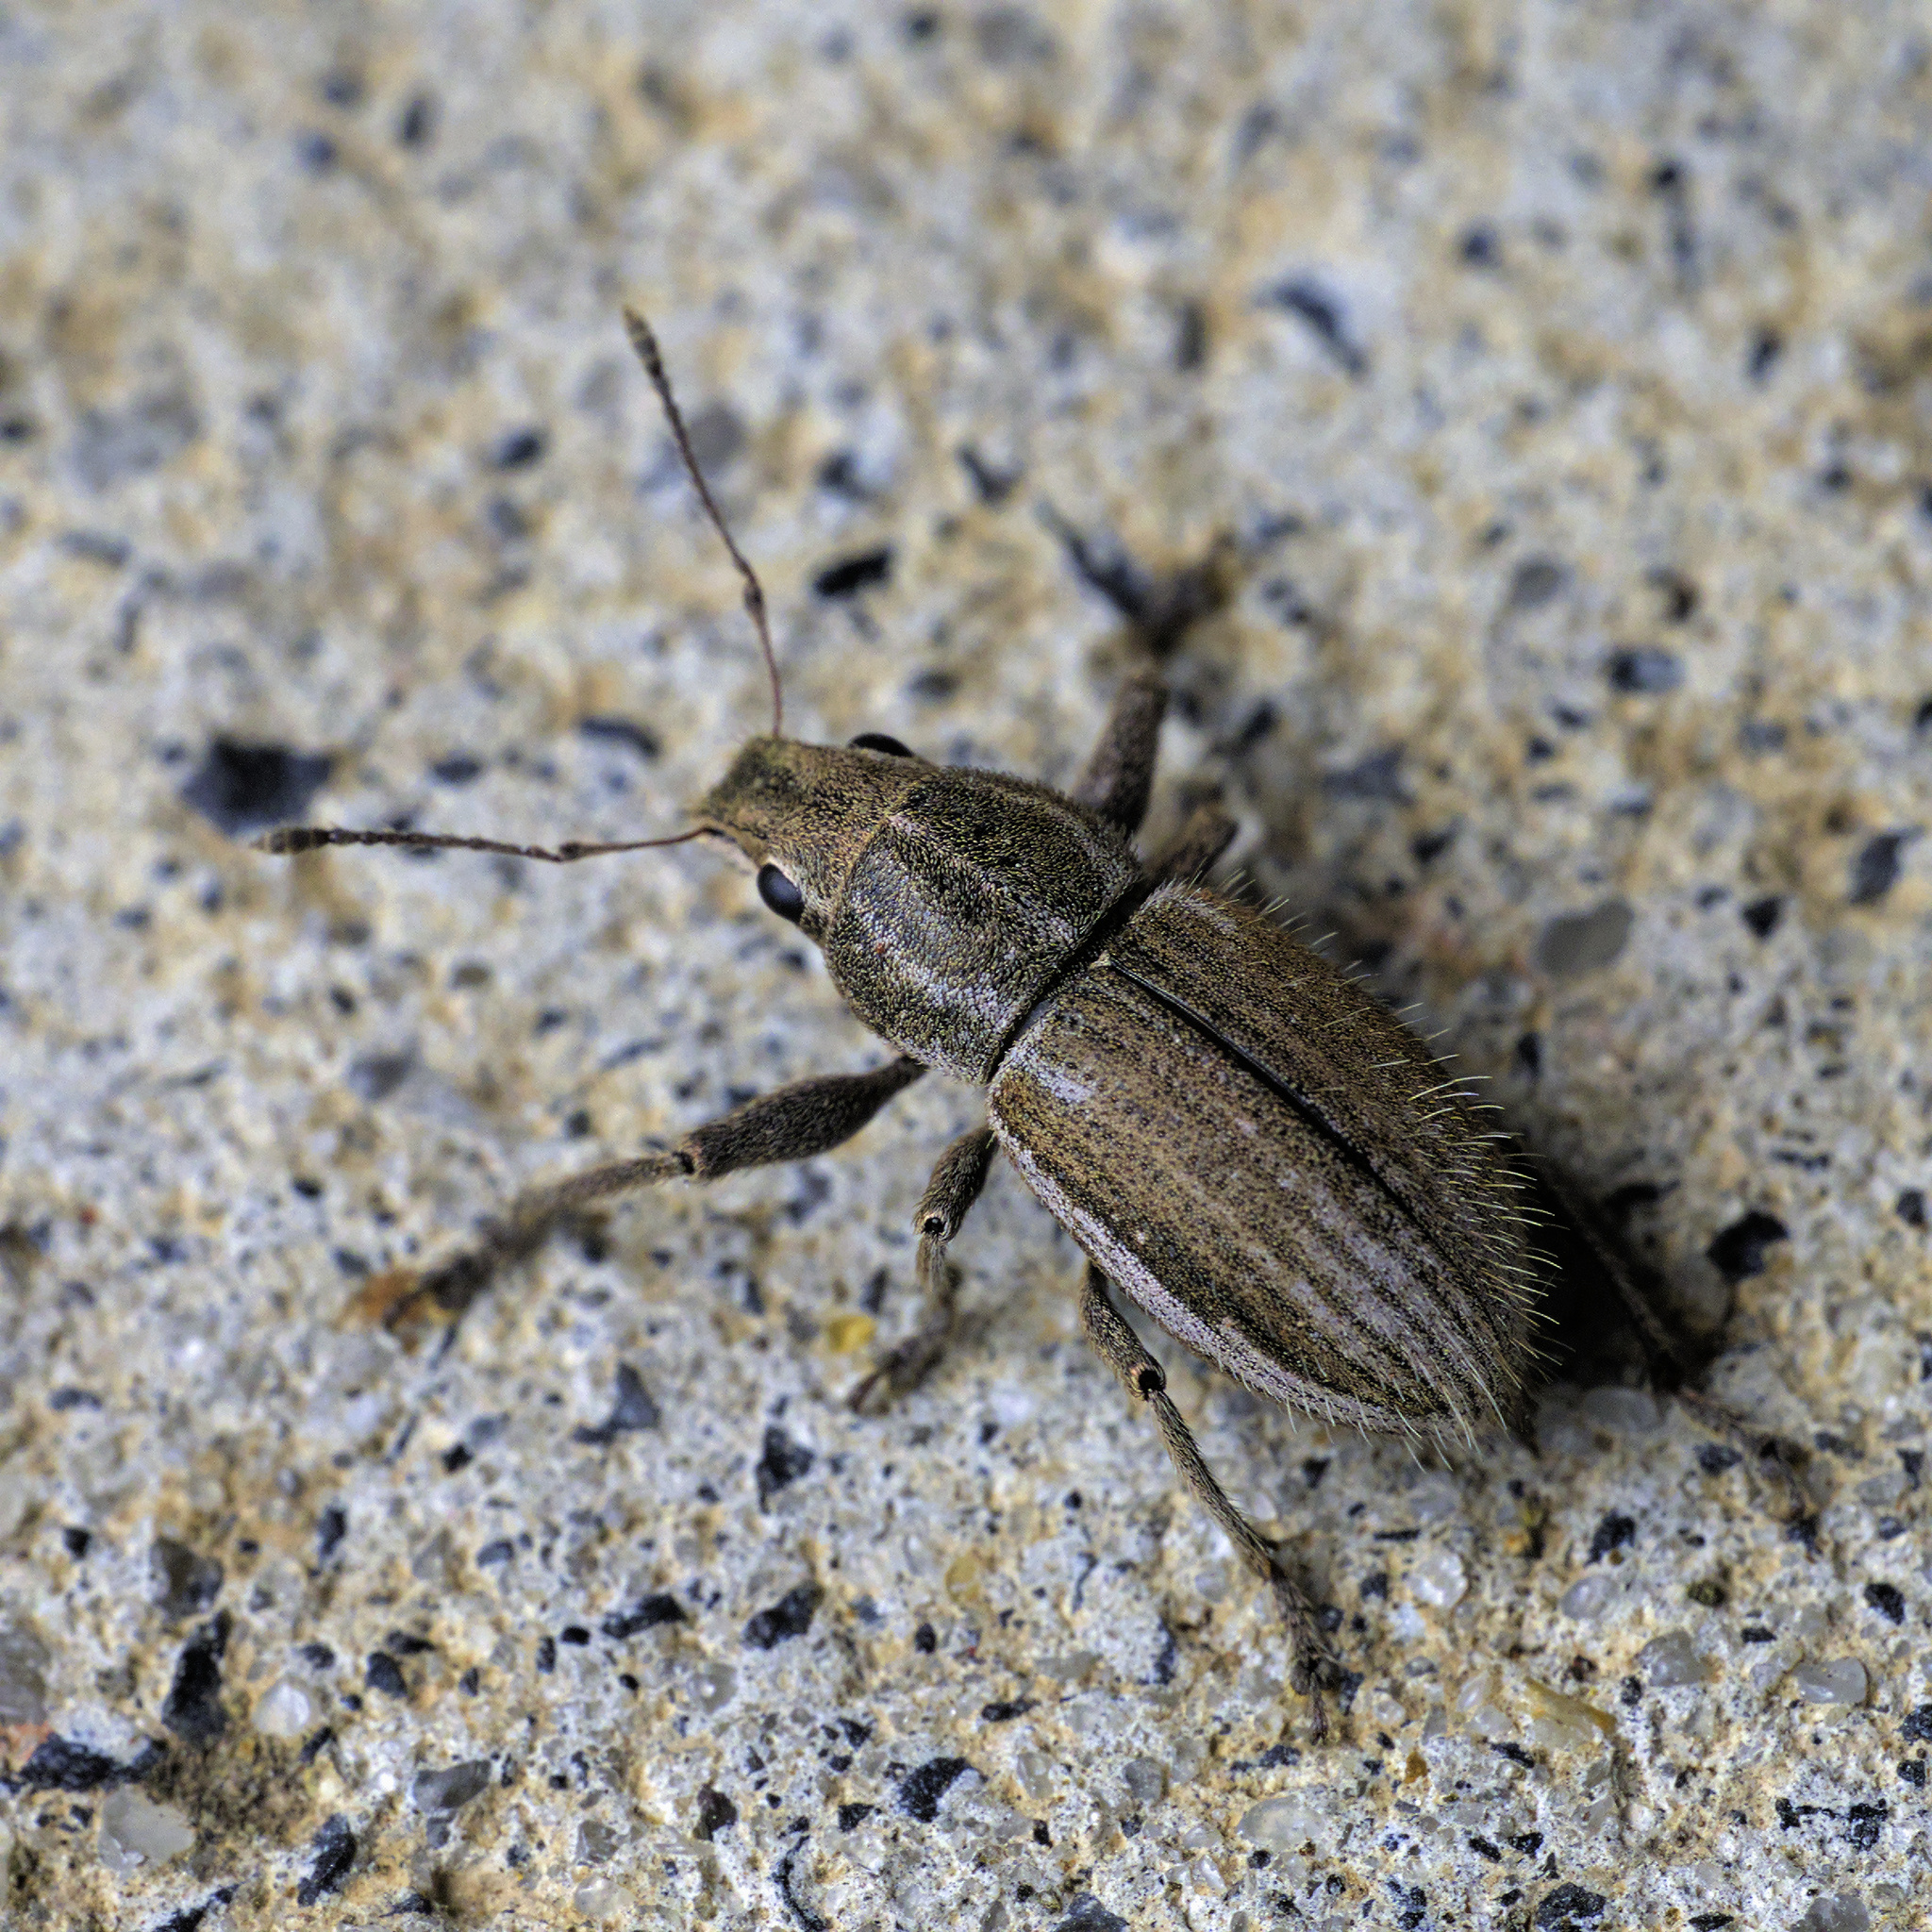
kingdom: Animalia
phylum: Arthropoda
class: Insecta
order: Coleoptera
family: Curculionidae
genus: Naupactus
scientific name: Naupactus leucoloma
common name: Whitefringed beetle
